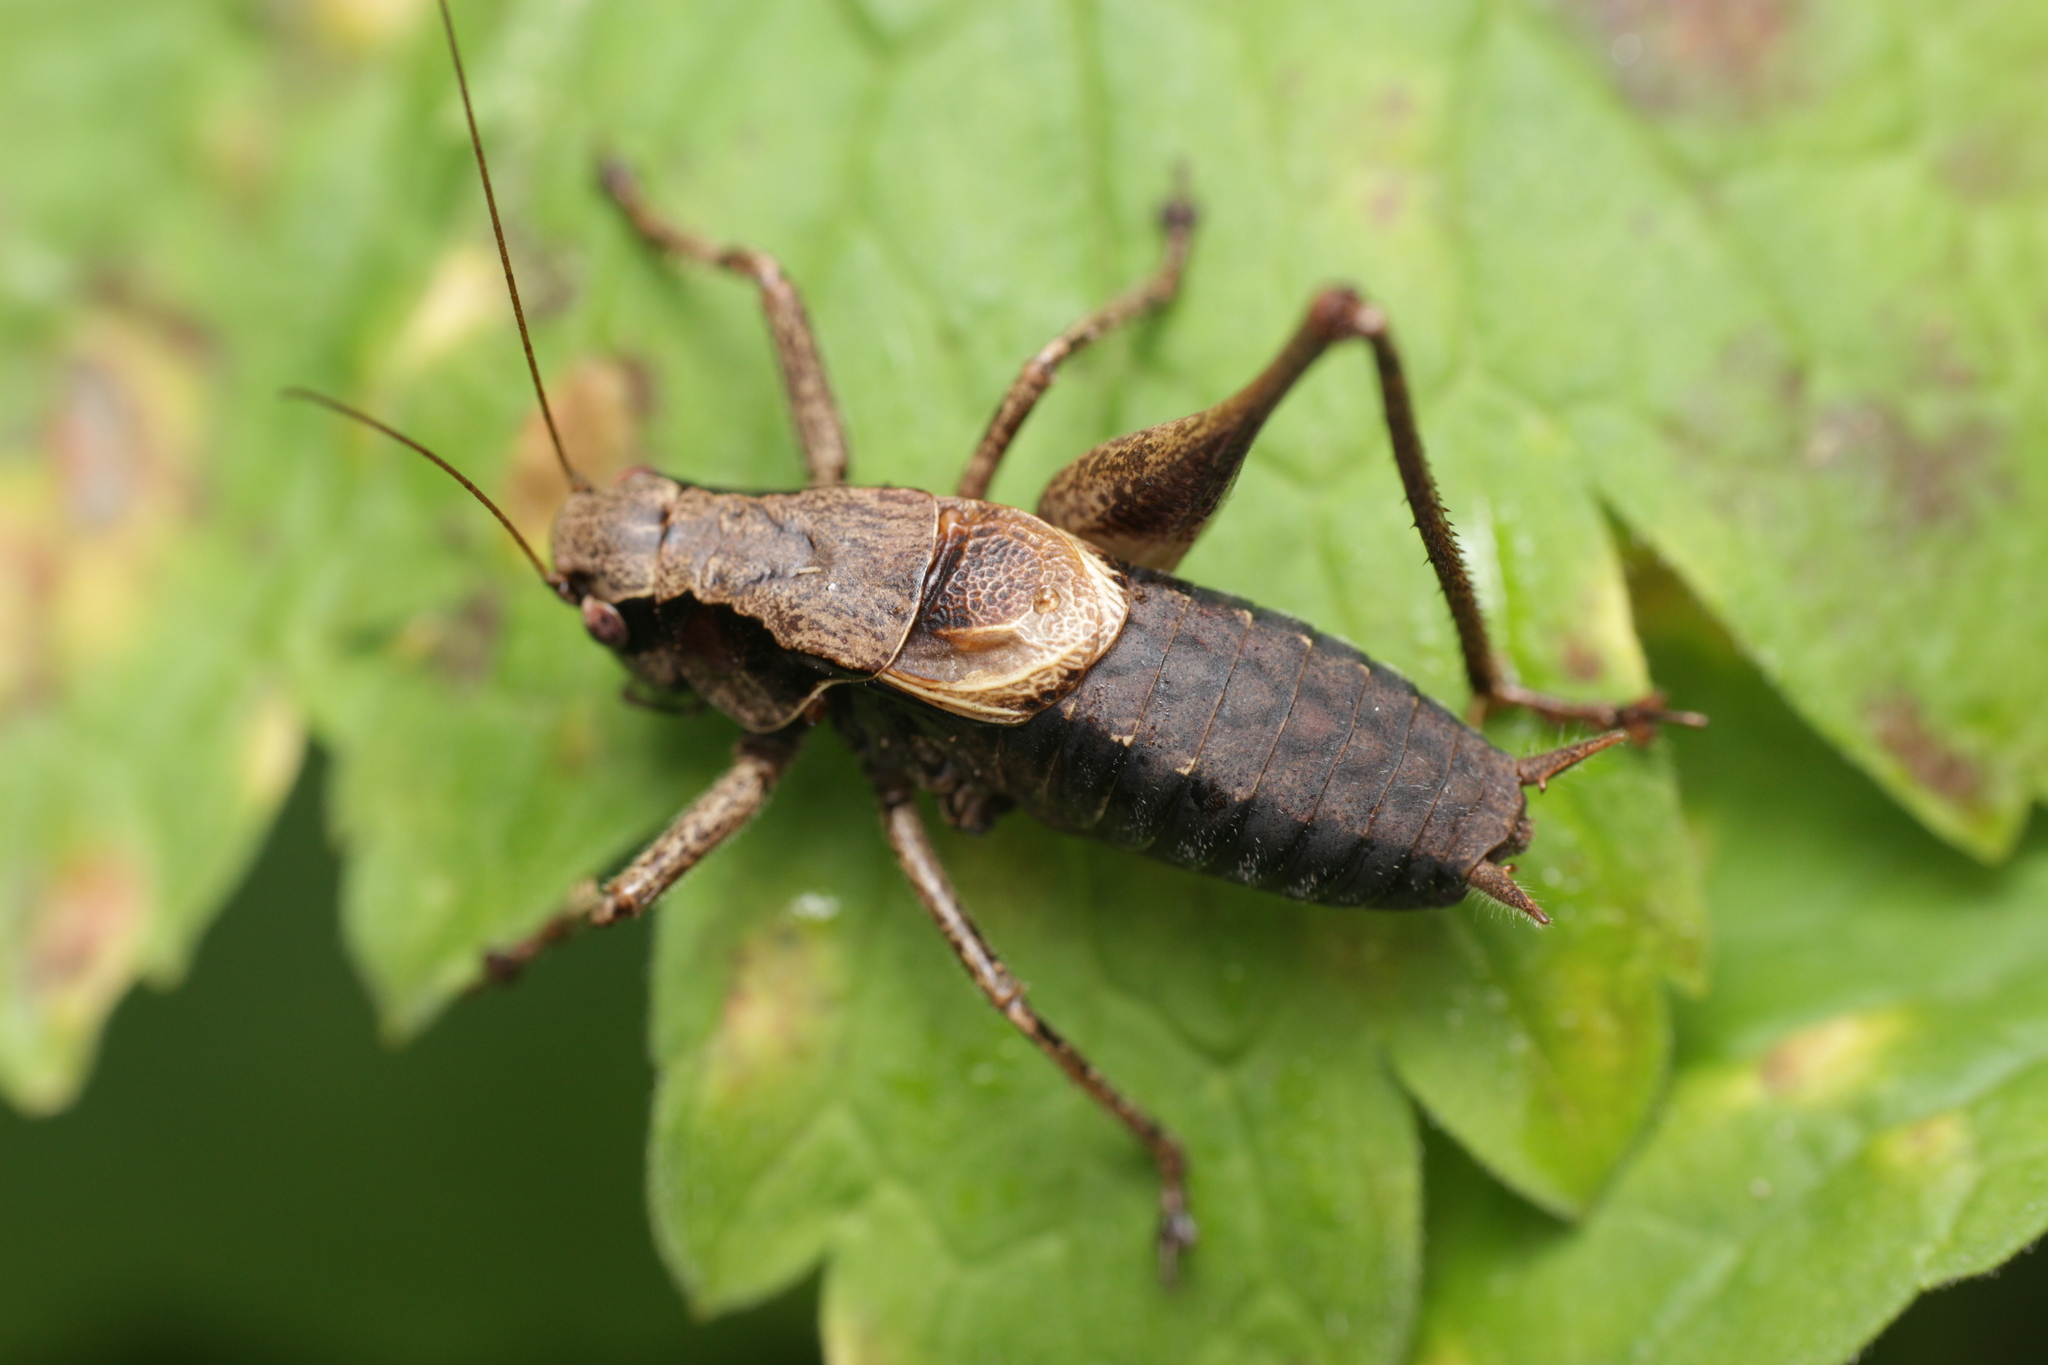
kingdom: Animalia
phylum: Arthropoda
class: Insecta
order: Orthoptera
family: Tettigoniidae
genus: Pholidoptera
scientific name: Pholidoptera griseoaptera
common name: Dark bush-cricket
